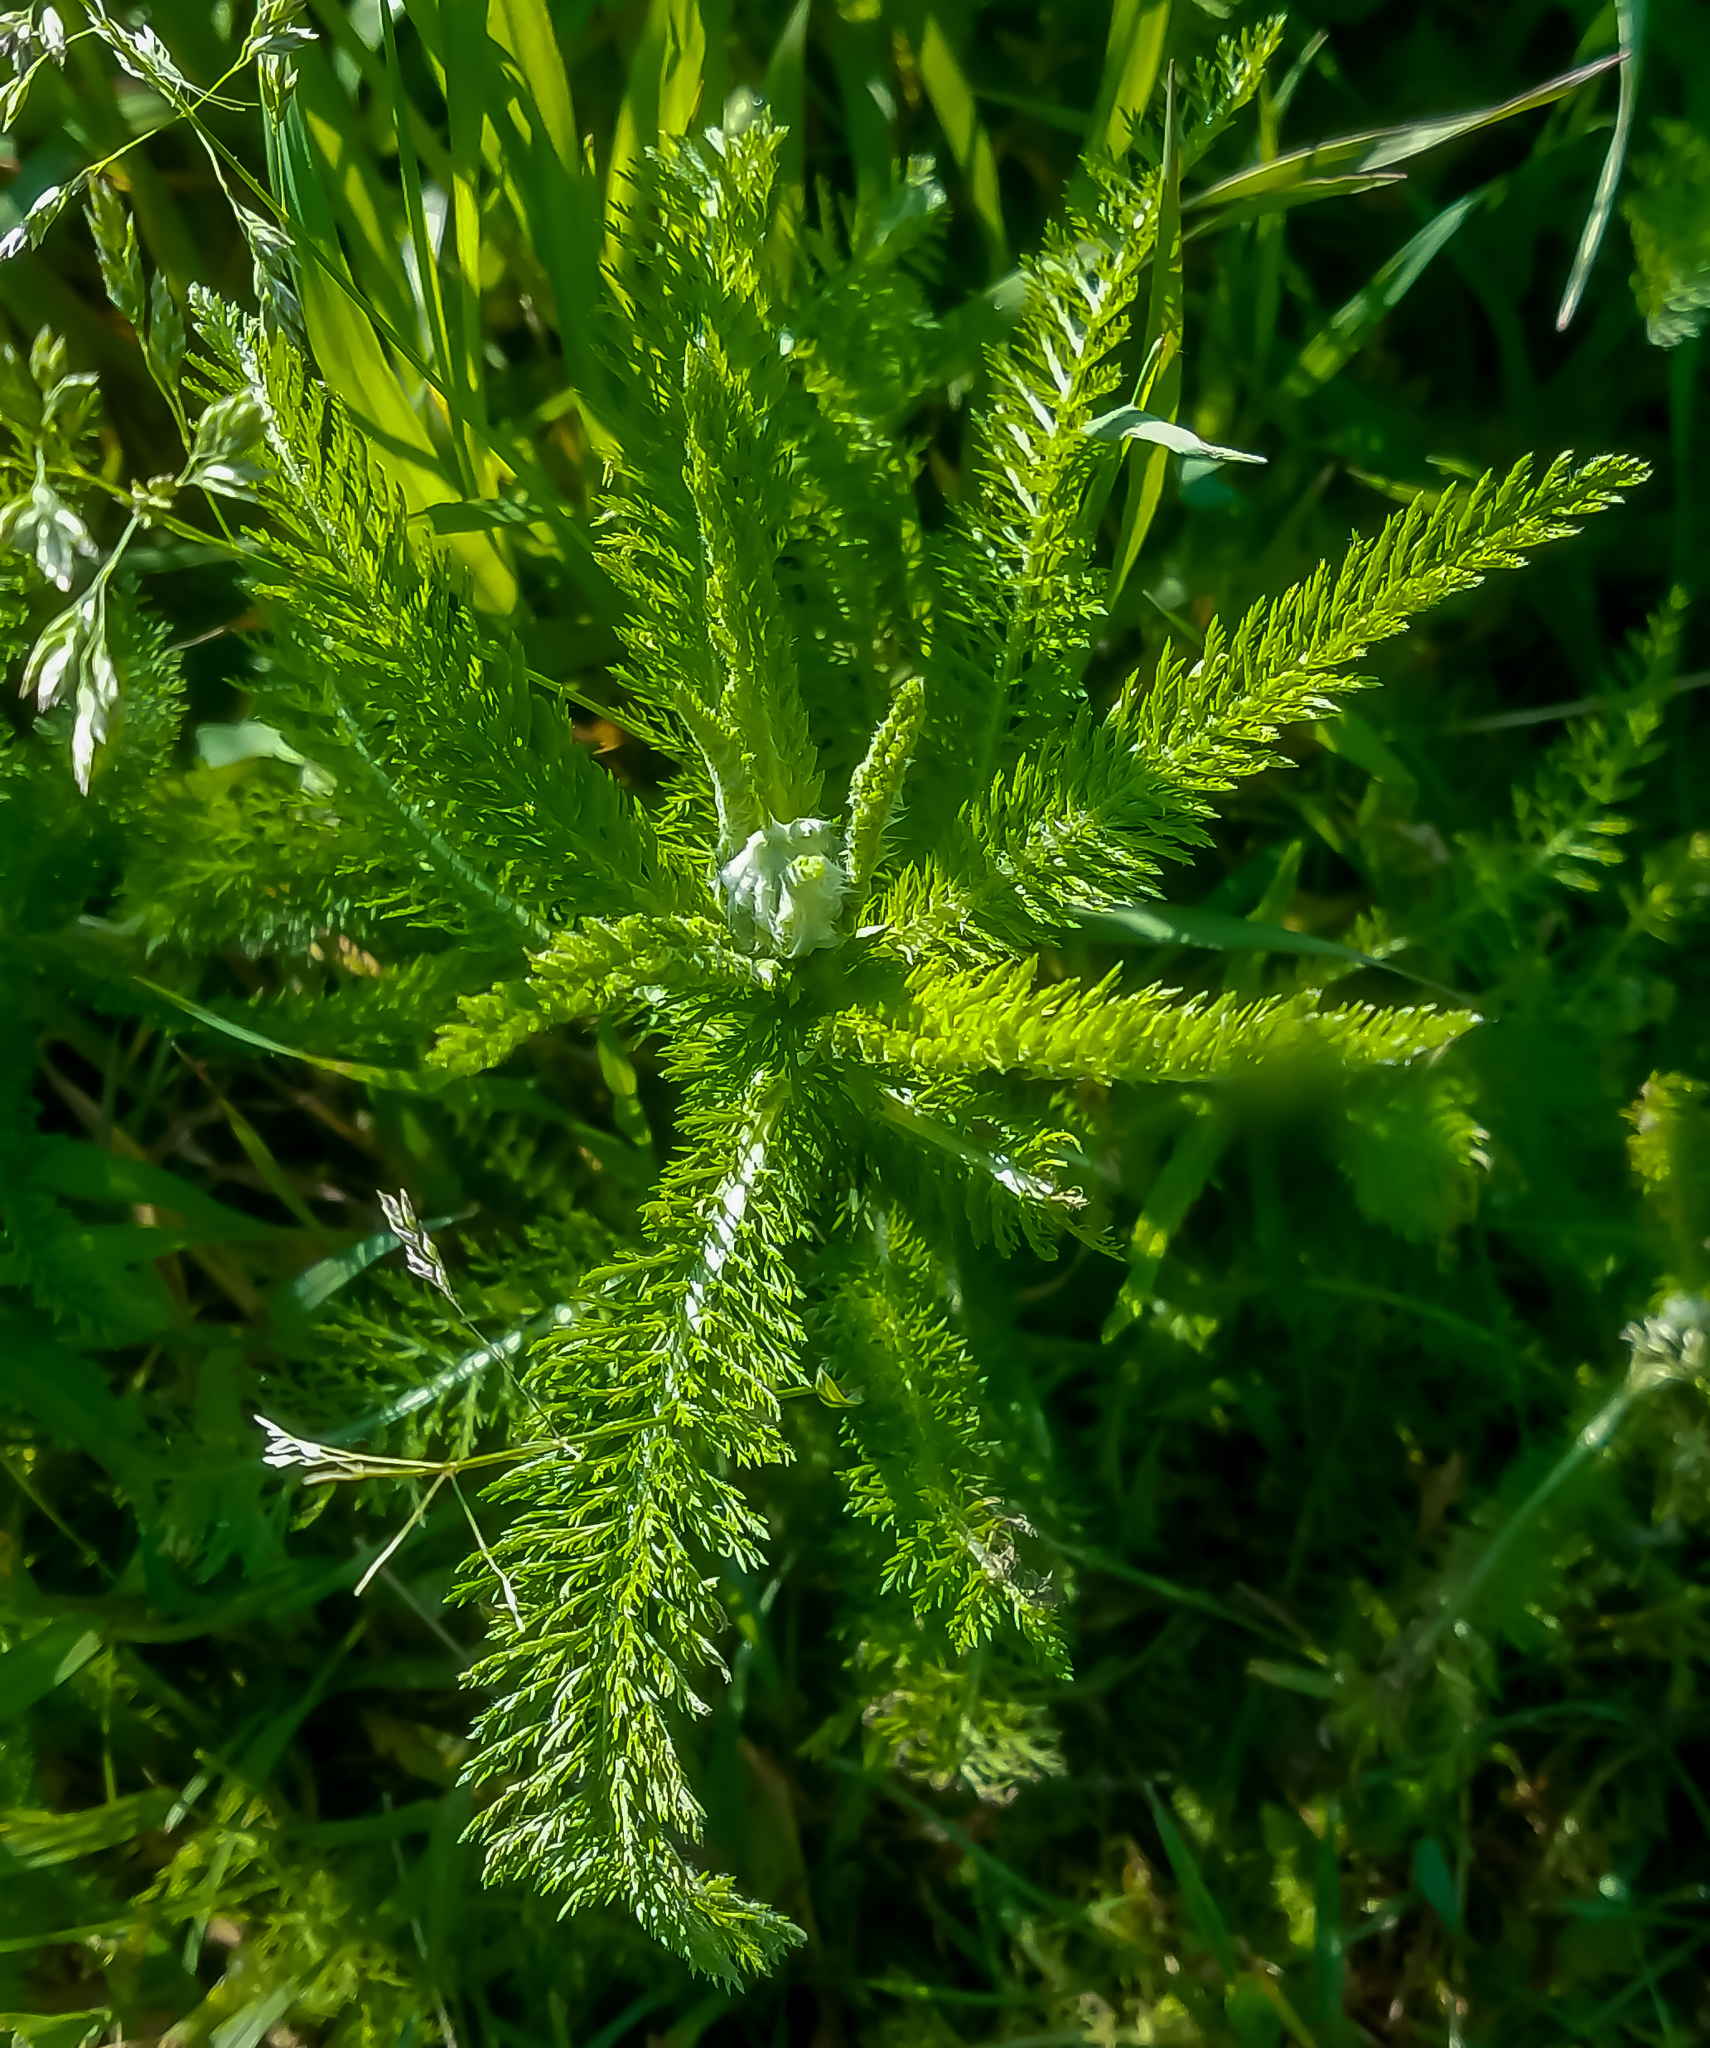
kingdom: Plantae
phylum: Tracheophyta
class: Magnoliopsida
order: Asterales
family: Asteraceae
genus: Achillea
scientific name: Achillea millefolium
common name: Yarrow
